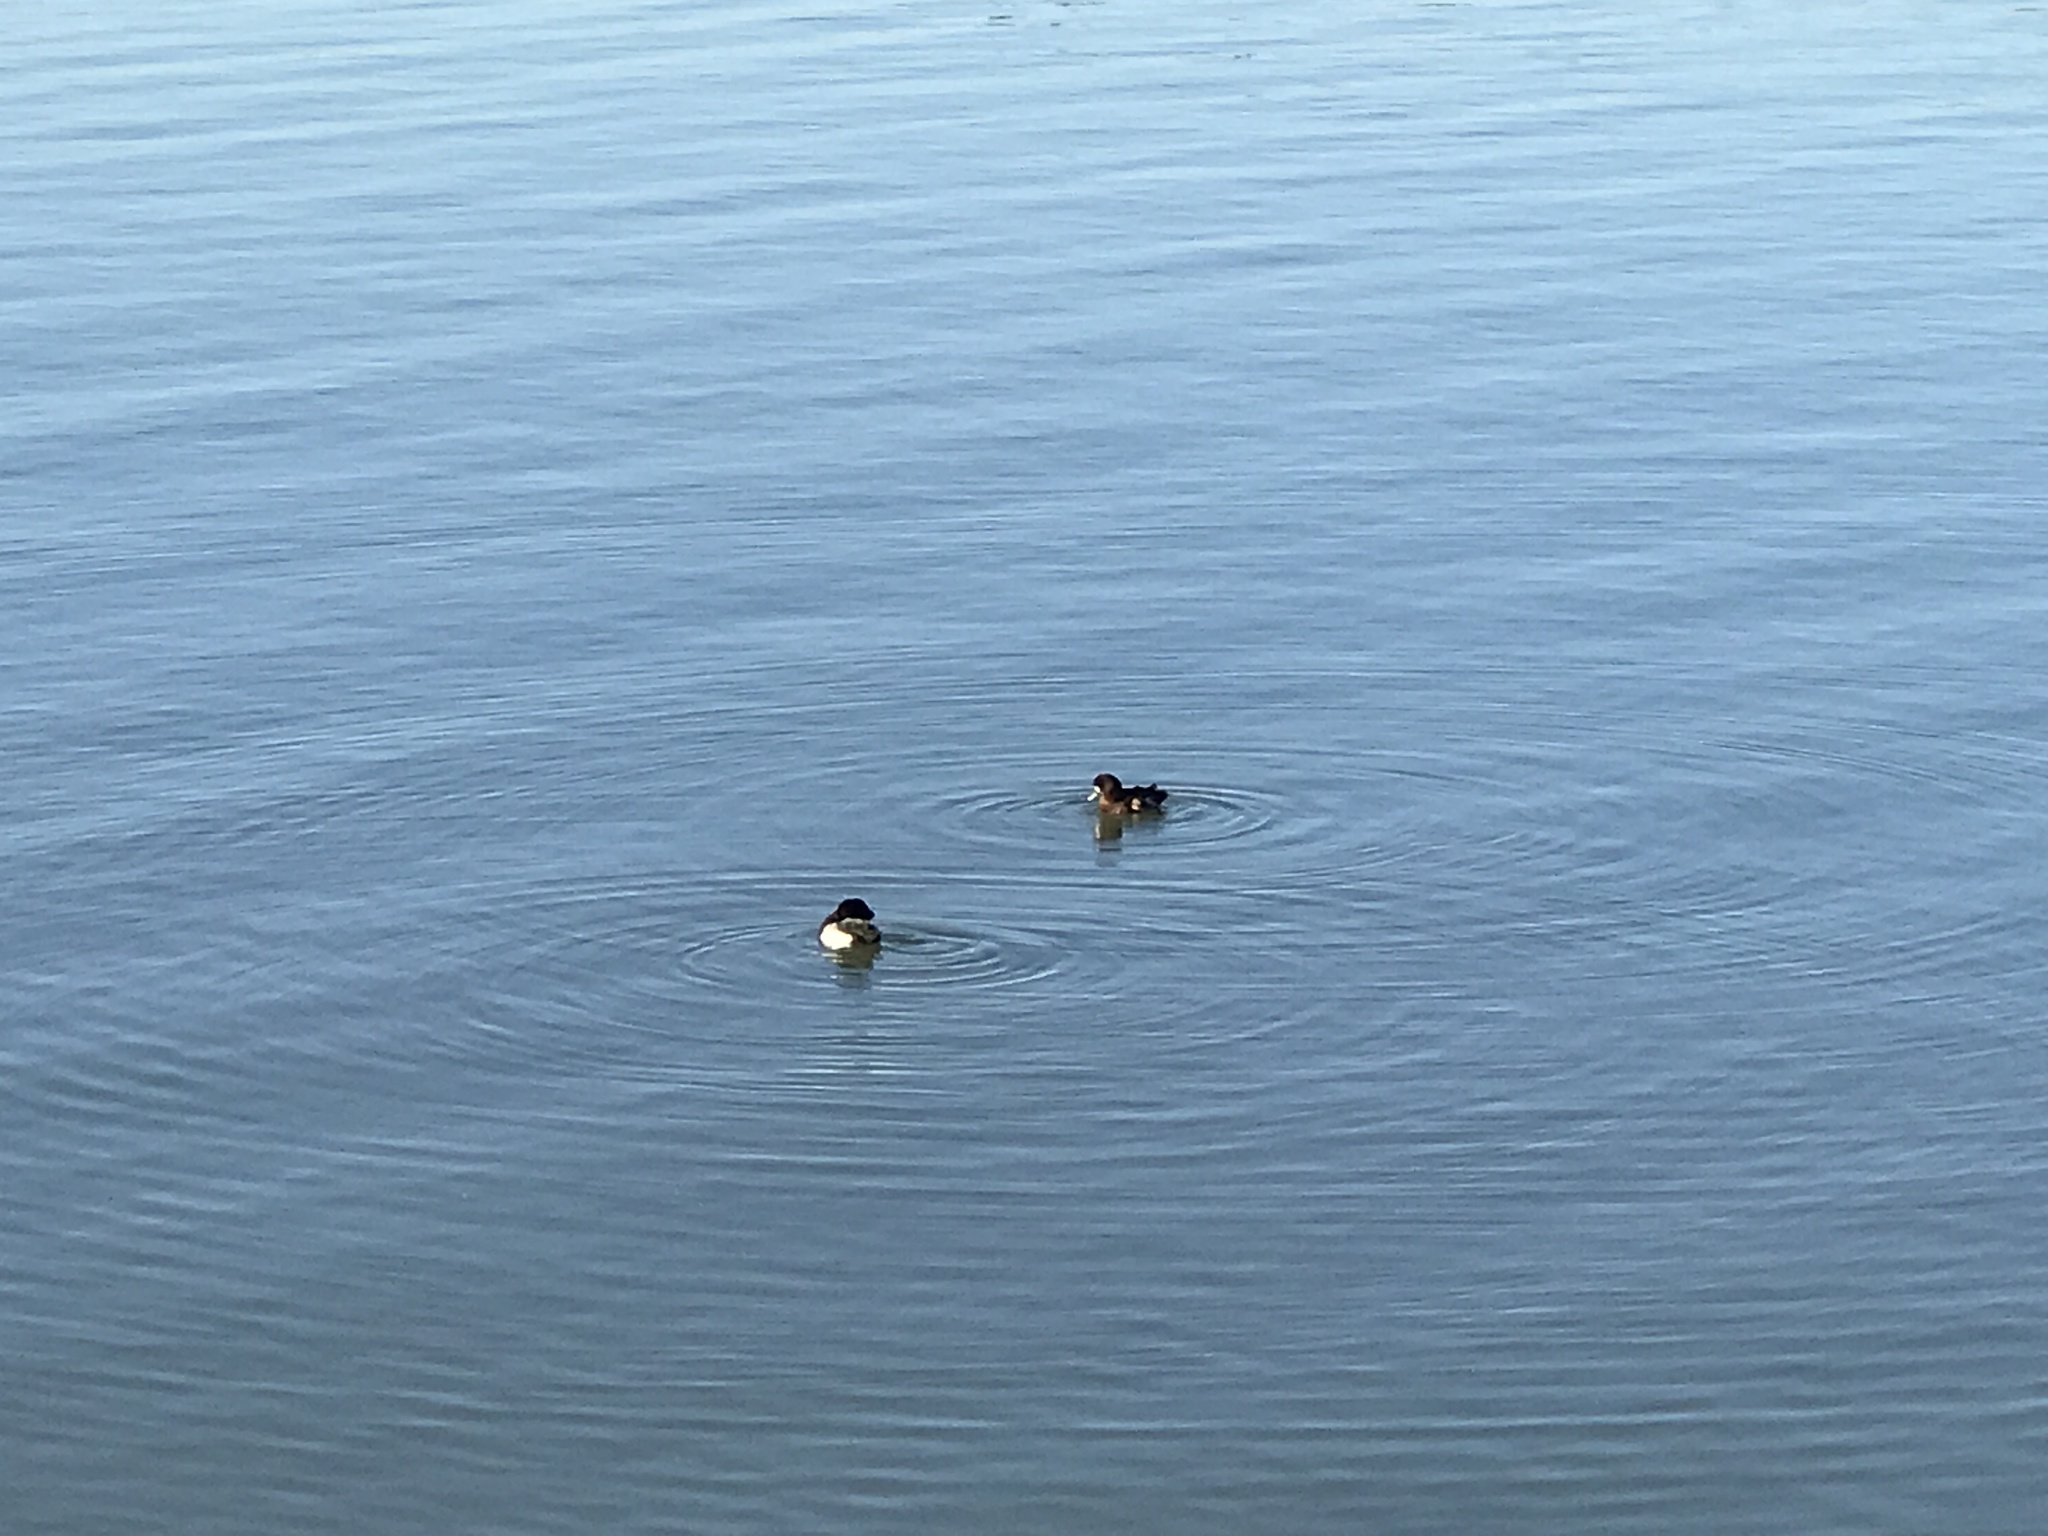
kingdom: Animalia
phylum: Chordata
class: Aves
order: Anseriformes
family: Anatidae
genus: Aythya
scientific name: Aythya marila
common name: Greater scaup
